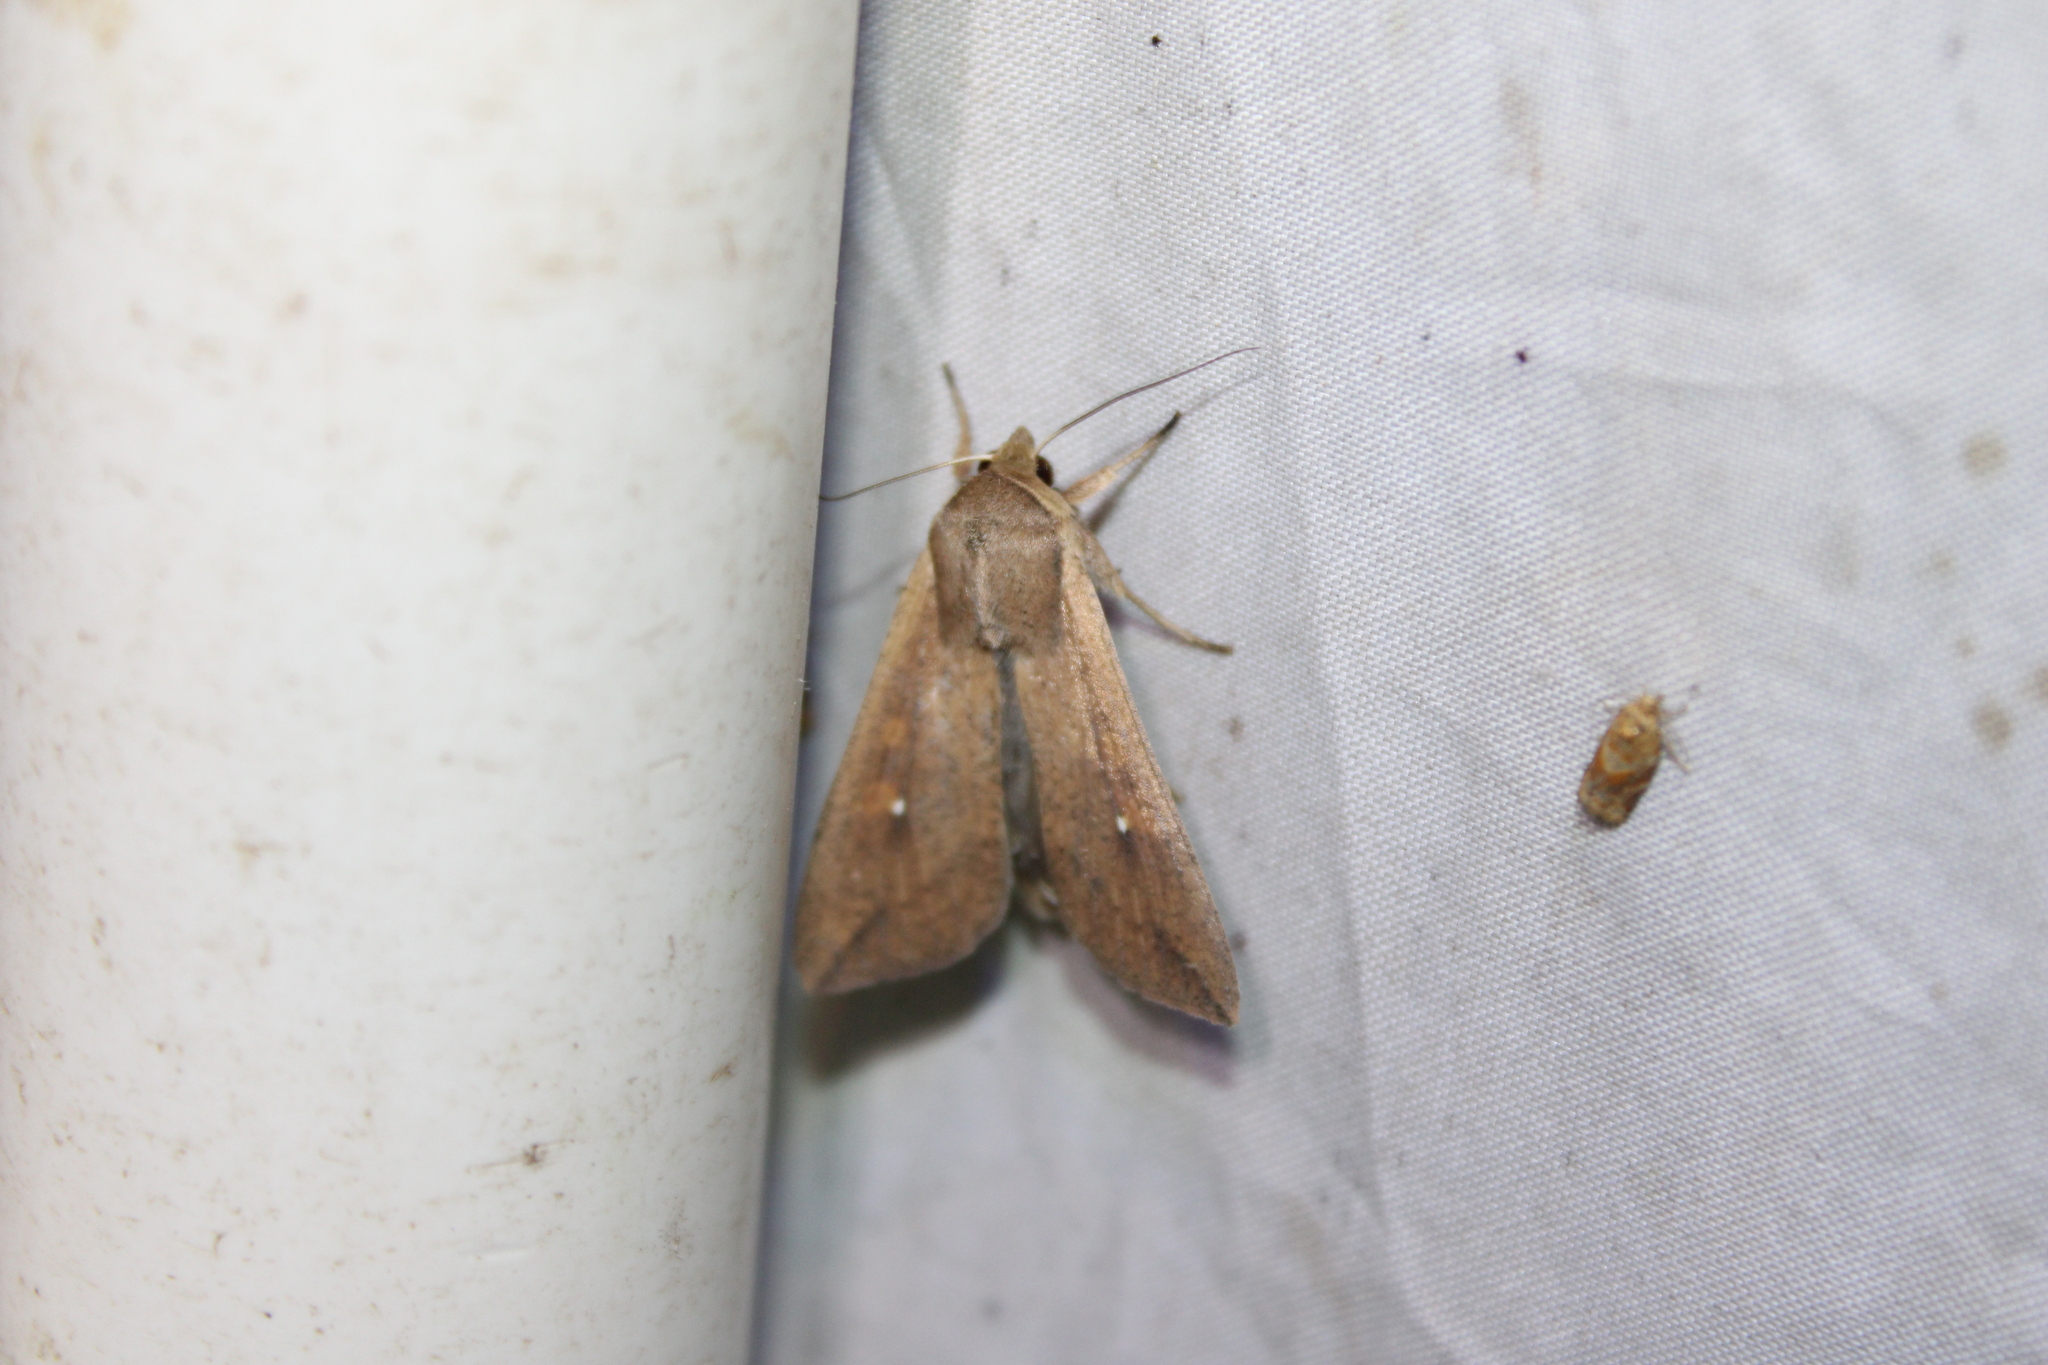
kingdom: Animalia
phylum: Arthropoda
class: Insecta
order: Lepidoptera
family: Noctuidae
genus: Mythimna
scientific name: Mythimna unipuncta
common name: White-speck
